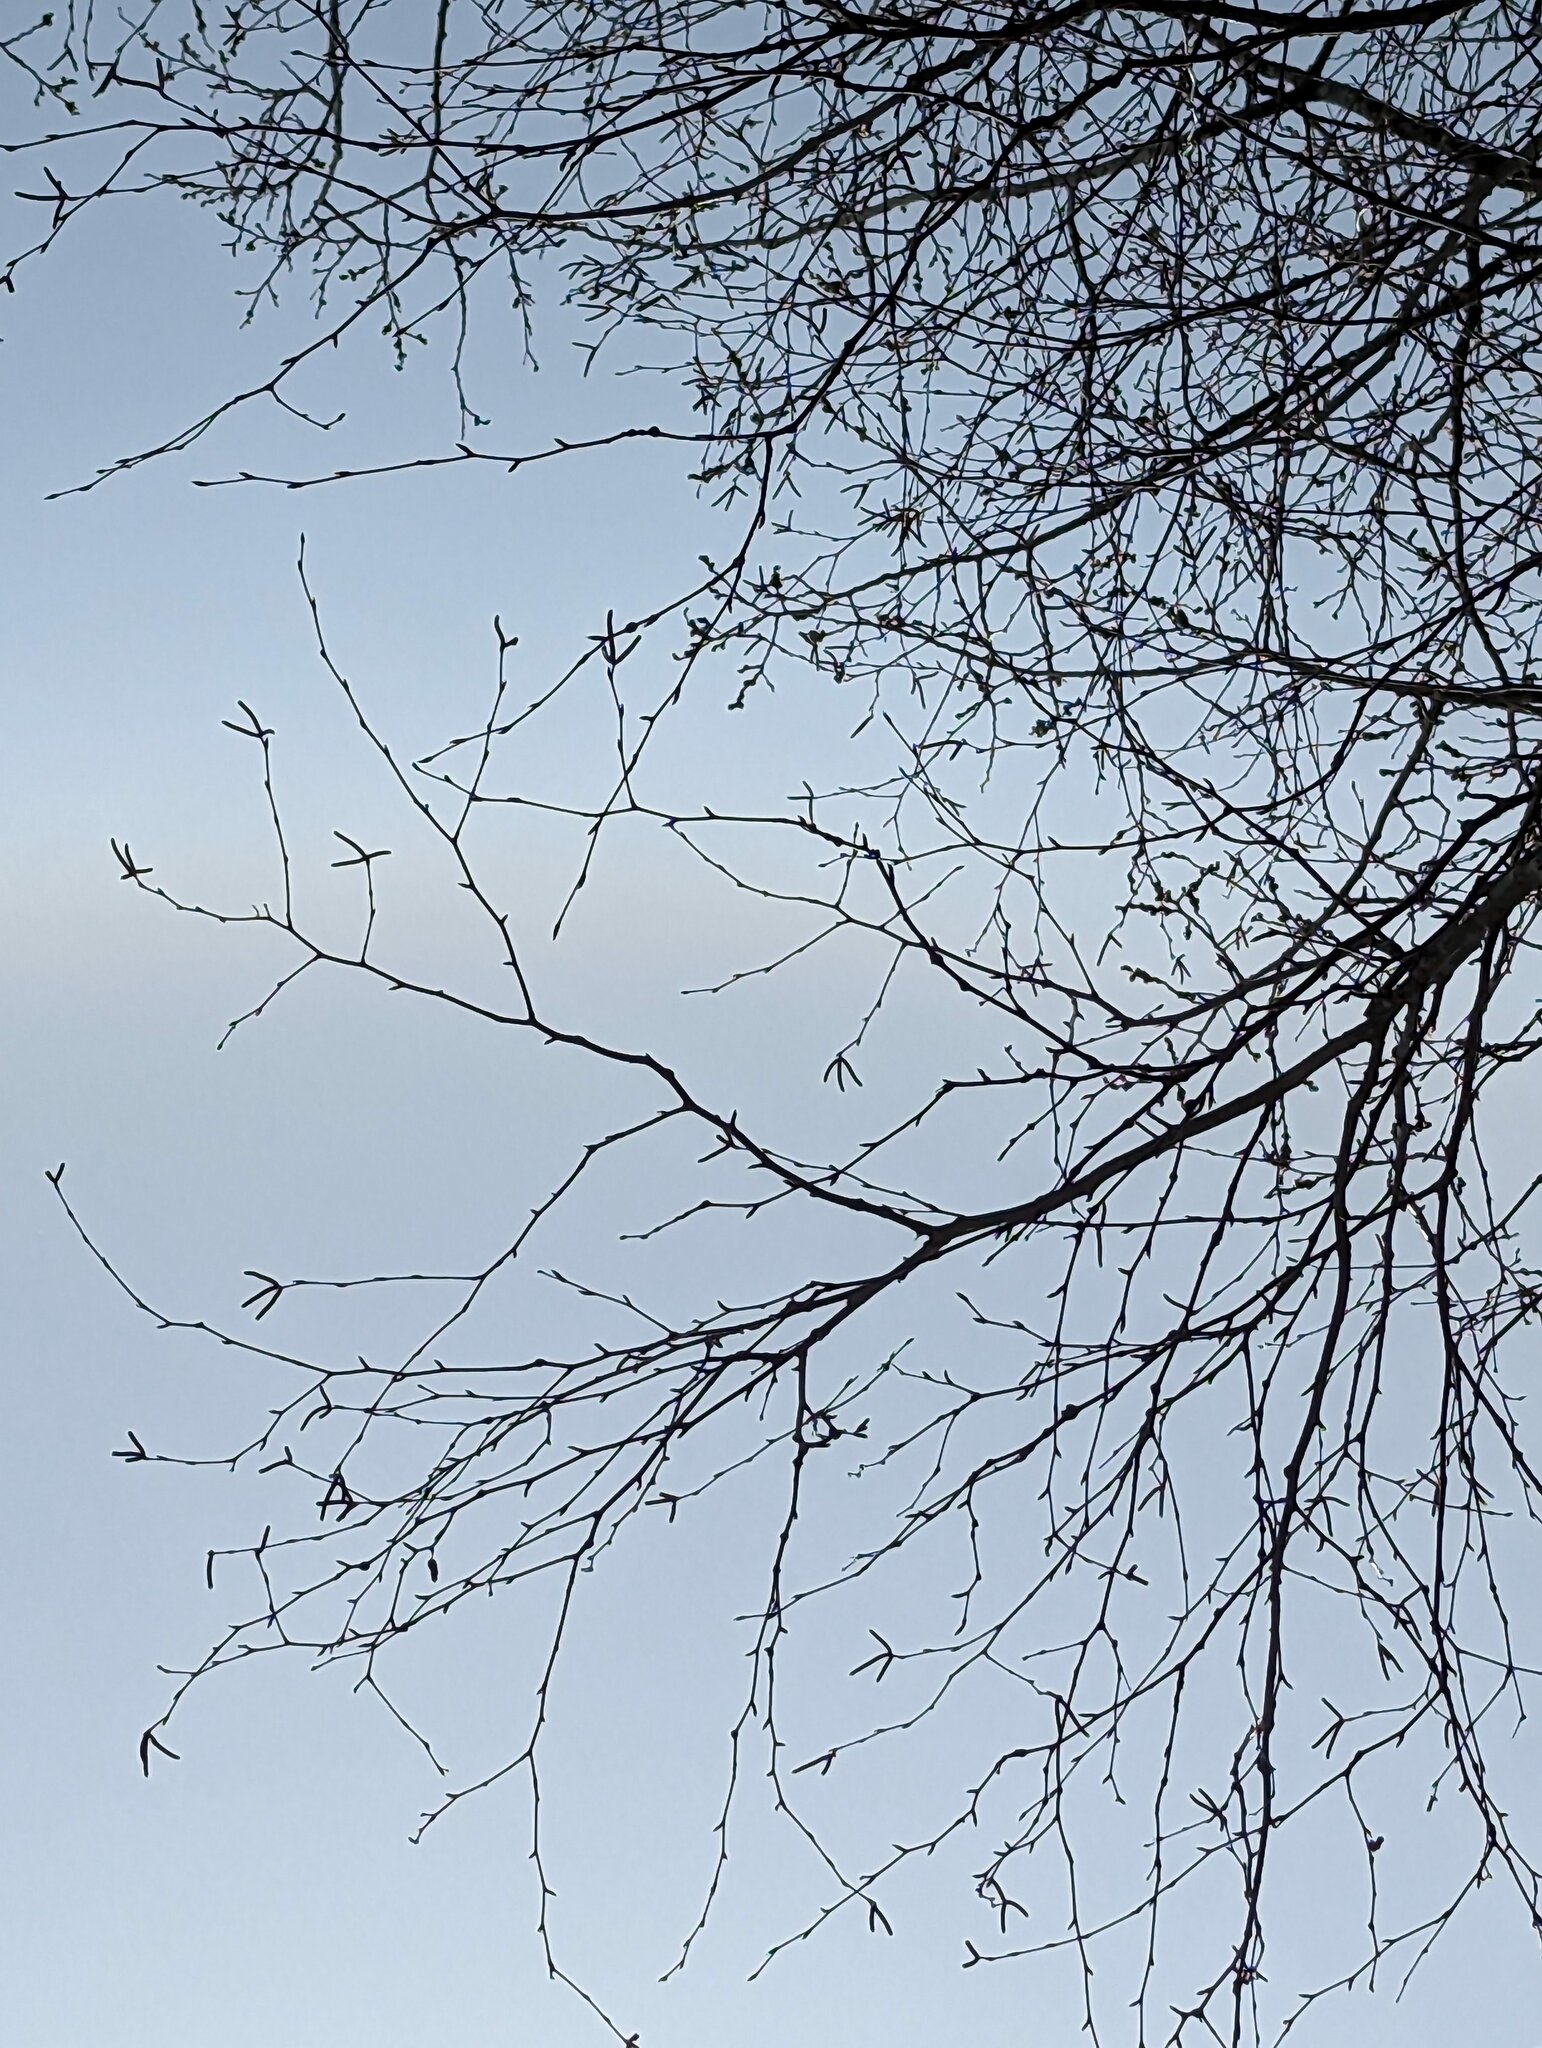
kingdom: Plantae
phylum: Tracheophyta
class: Magnoliopsida
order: Fagales
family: Betulaceae
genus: Betula
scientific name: Betula papyrifera
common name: Paper birch
